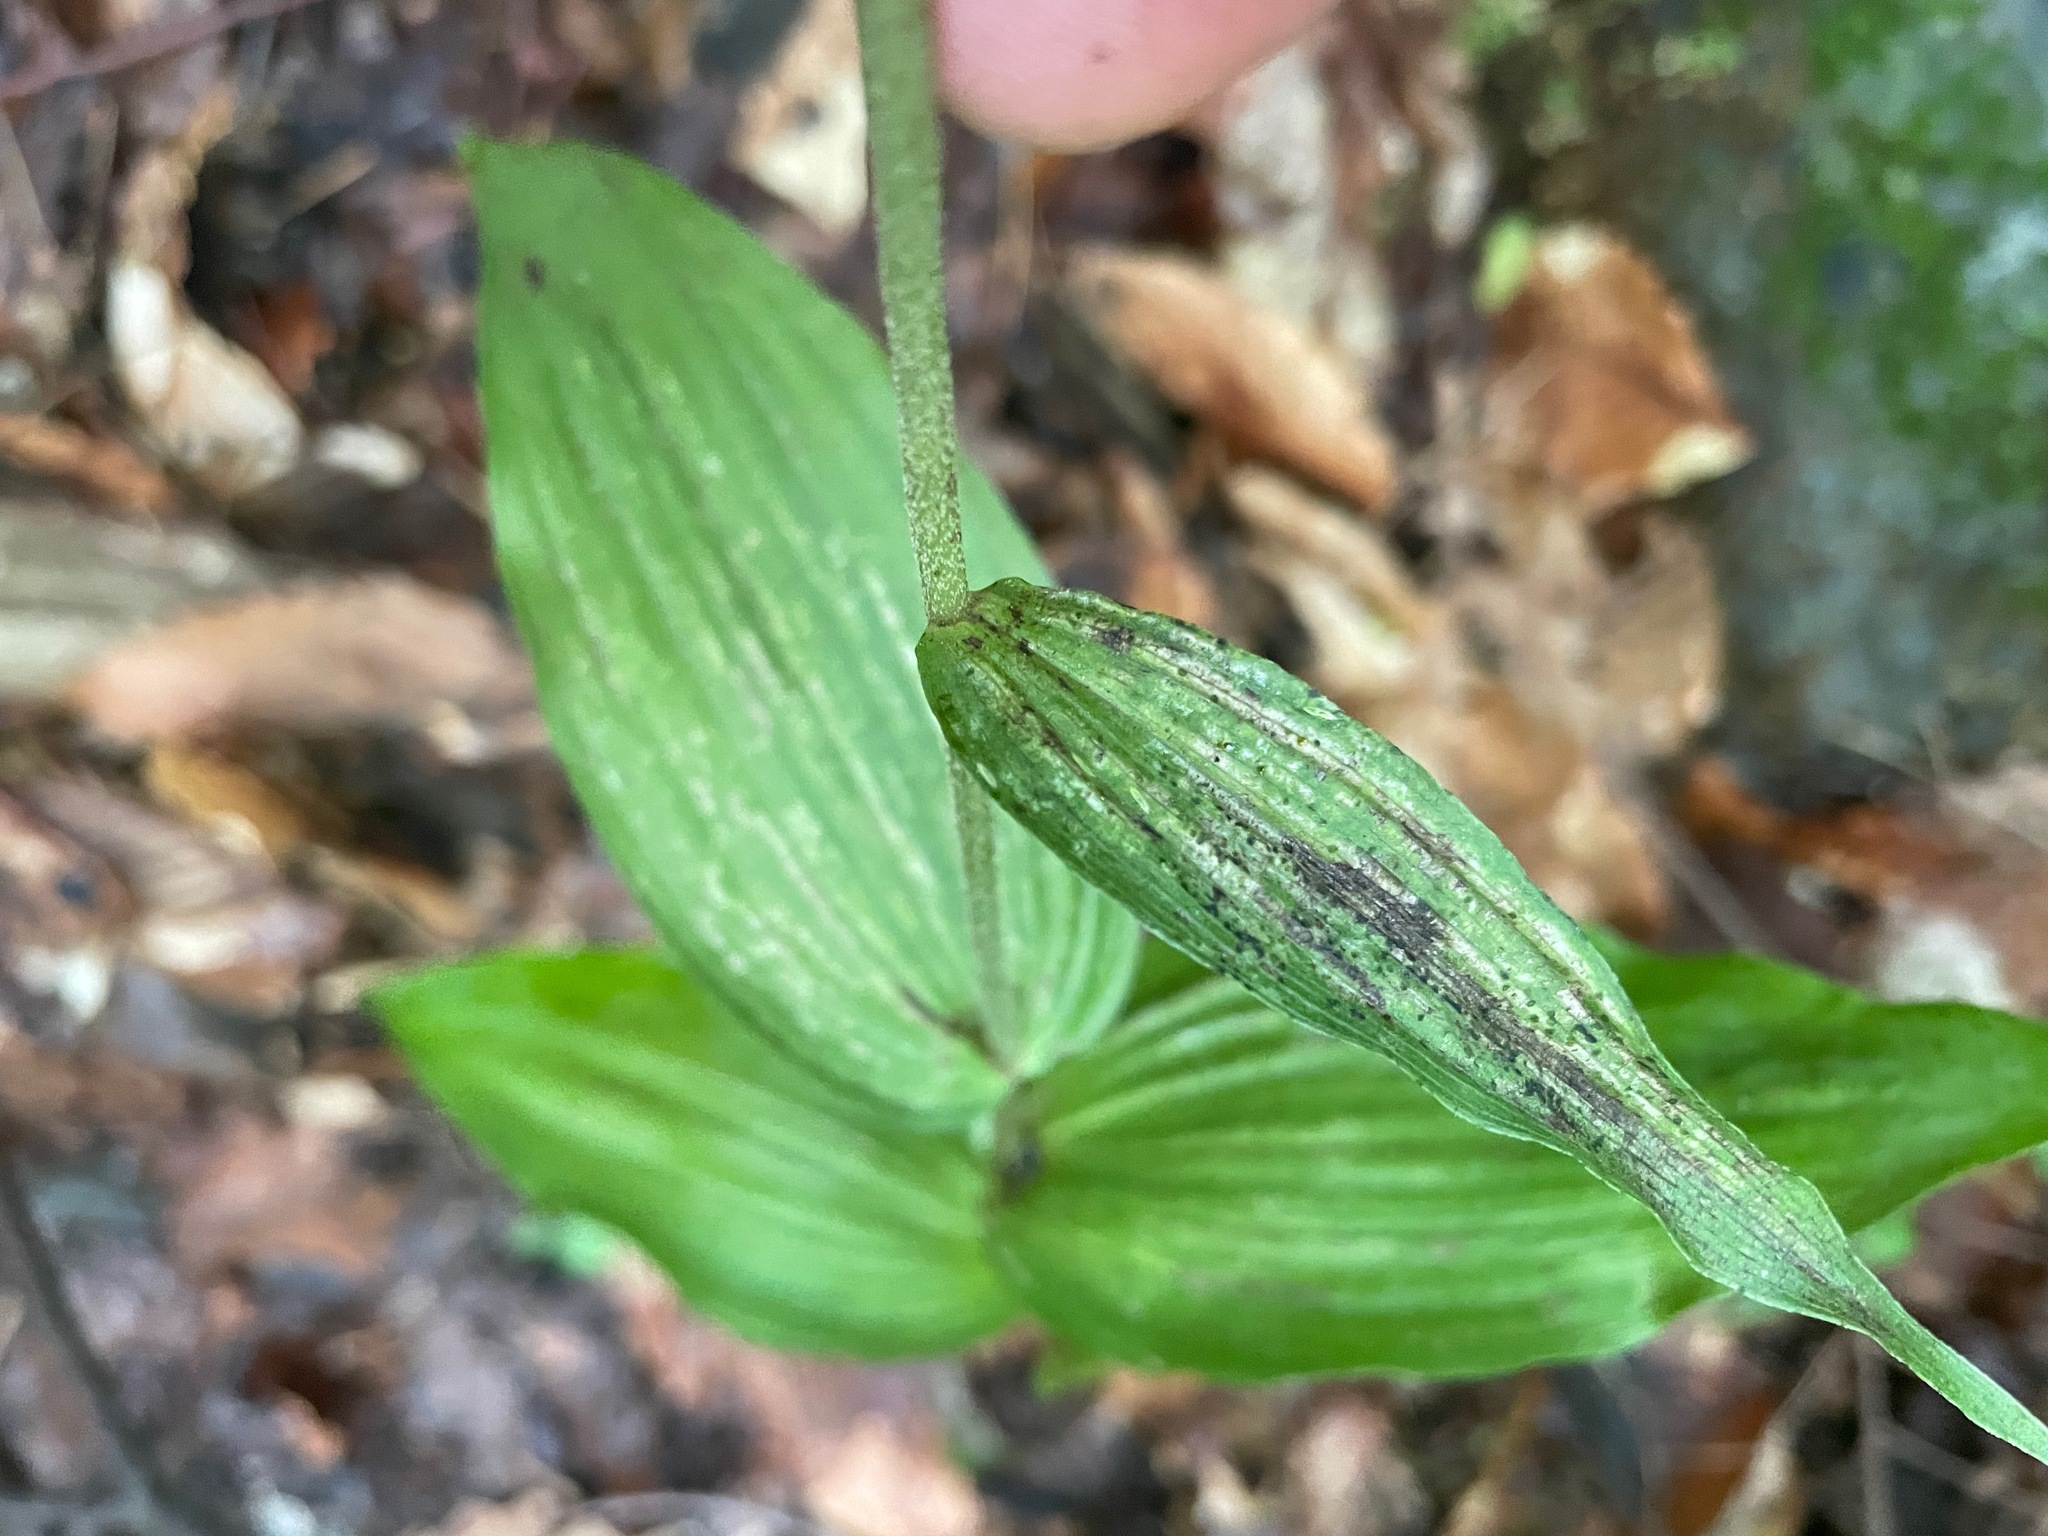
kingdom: Plantae
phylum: Tracheophyta
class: Liliopsida
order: Asparagales
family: Orchidaceae
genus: Epipactis
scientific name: Epipactis helleborine
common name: Broad-leaved helleborine
